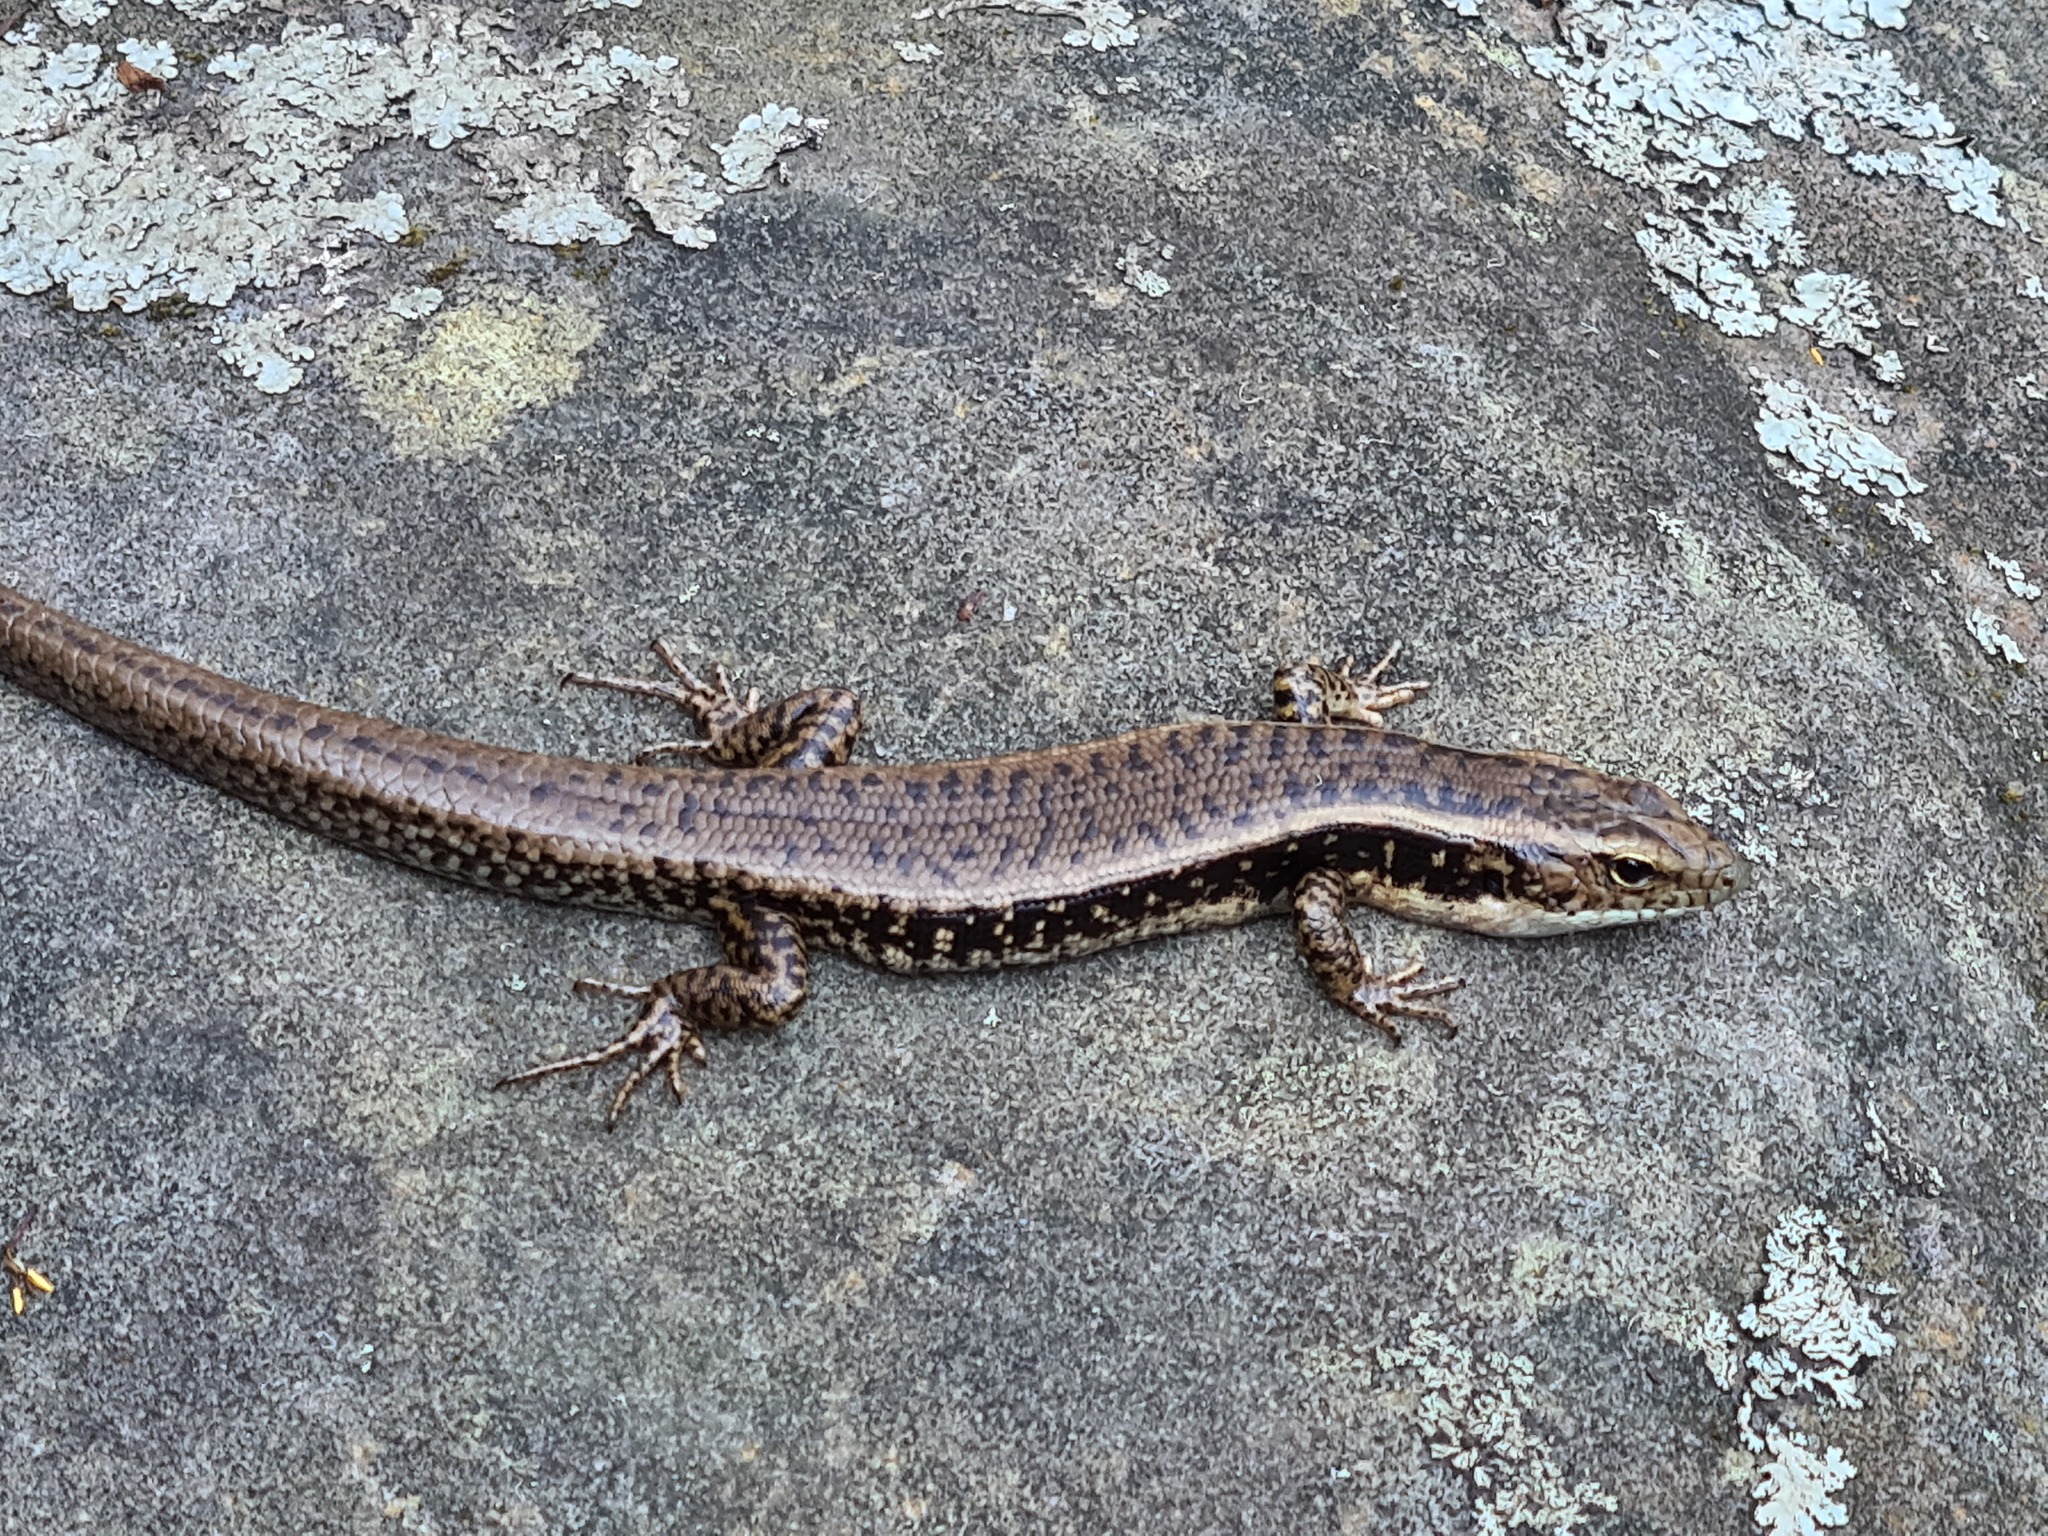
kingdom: Animalia
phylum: Chordata
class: Squamata
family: Scincidae
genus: Eulamprus
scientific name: Eulamprus quoyii
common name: Eastern water skink
